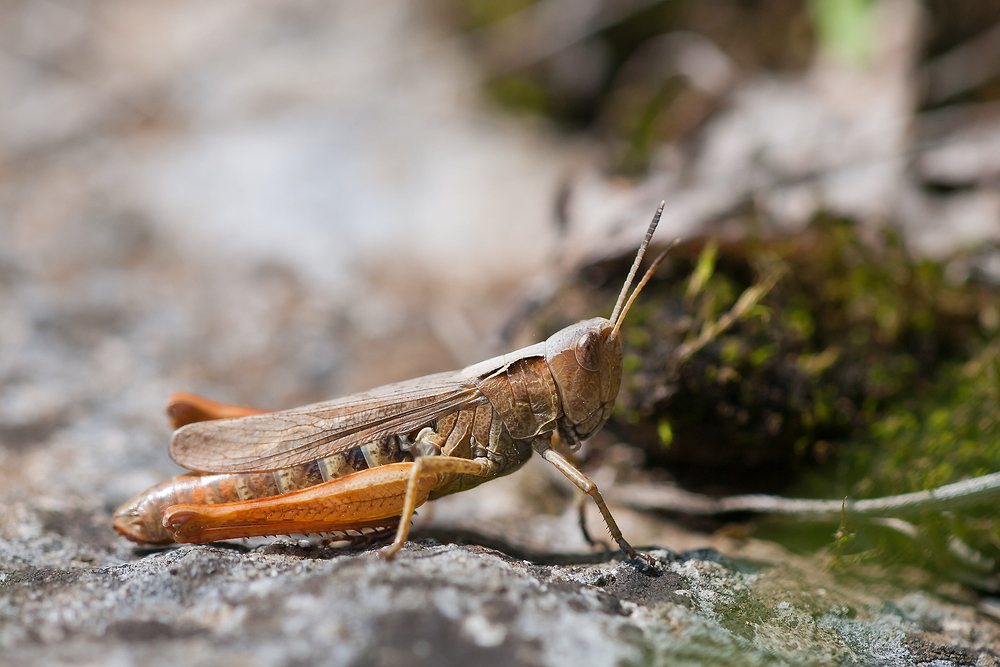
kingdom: Animalia
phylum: Arthropoda
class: Insecta
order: Orthoptera
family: Acrididae
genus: Gomphocerippus
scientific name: Gomphocerippus rufus
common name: Rufous grasshopper
